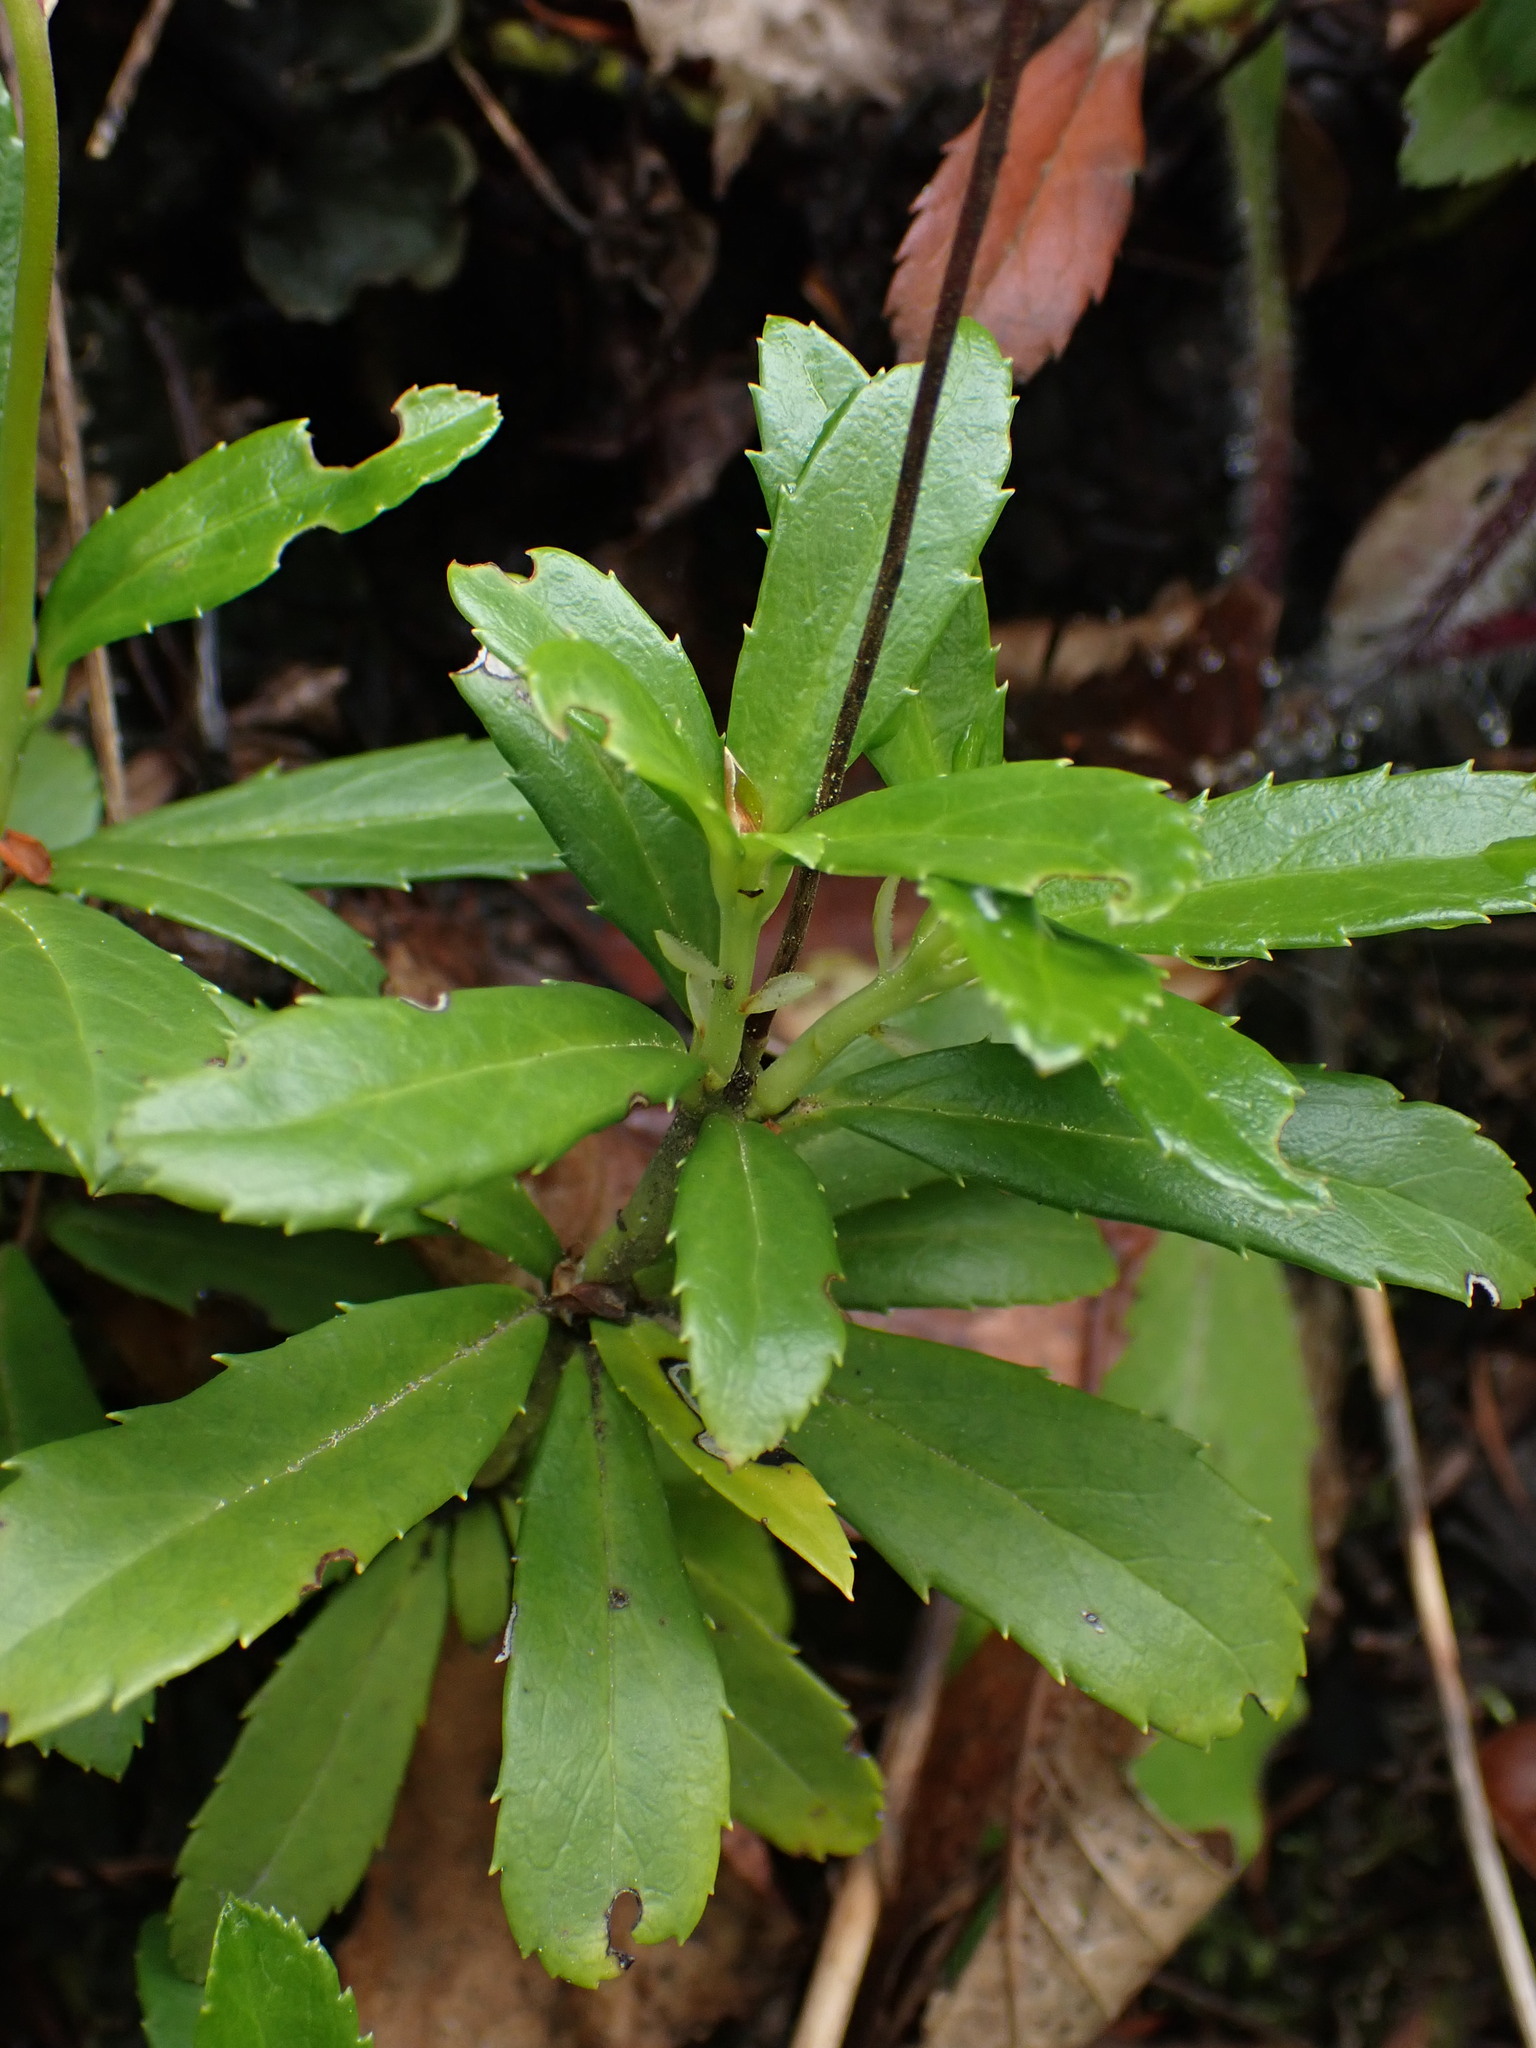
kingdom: Plantae
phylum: Tracheophyta
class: Magnoliopsida
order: Ericales
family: Ericaceae
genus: Chimaphila
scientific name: Chimaphila umbellata
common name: Pipsissewa
